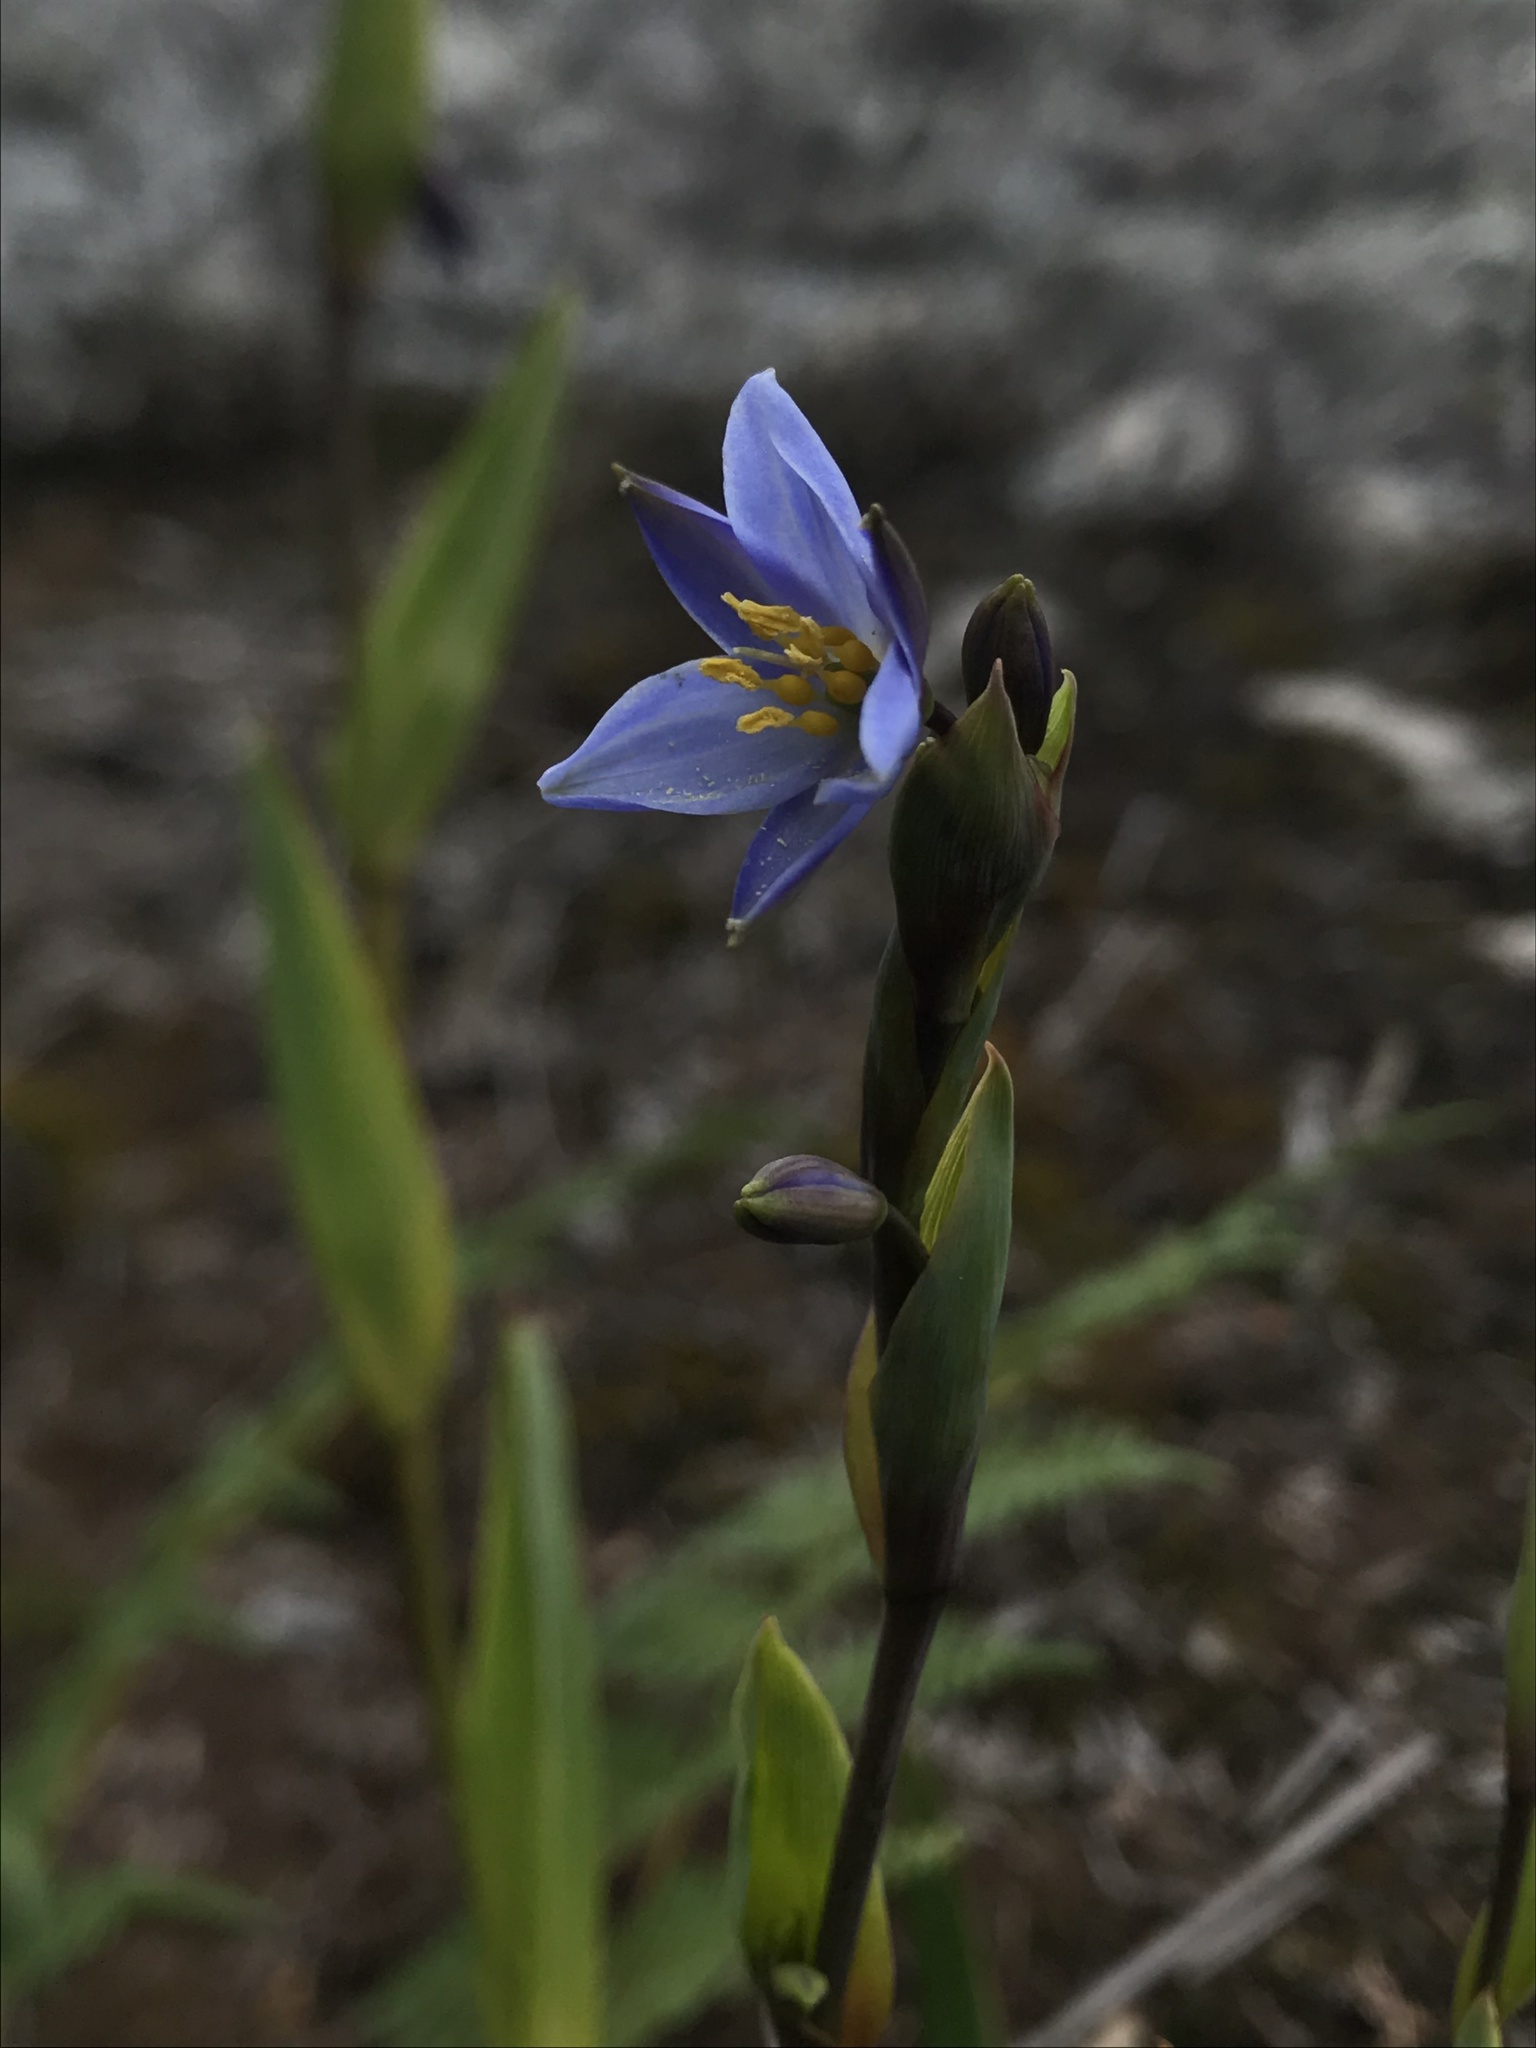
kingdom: Plantae
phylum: Tracheophyta
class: Liliopsida
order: Asparagales
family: Asphodelaceae
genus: Excremis
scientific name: Excremis coarctata
